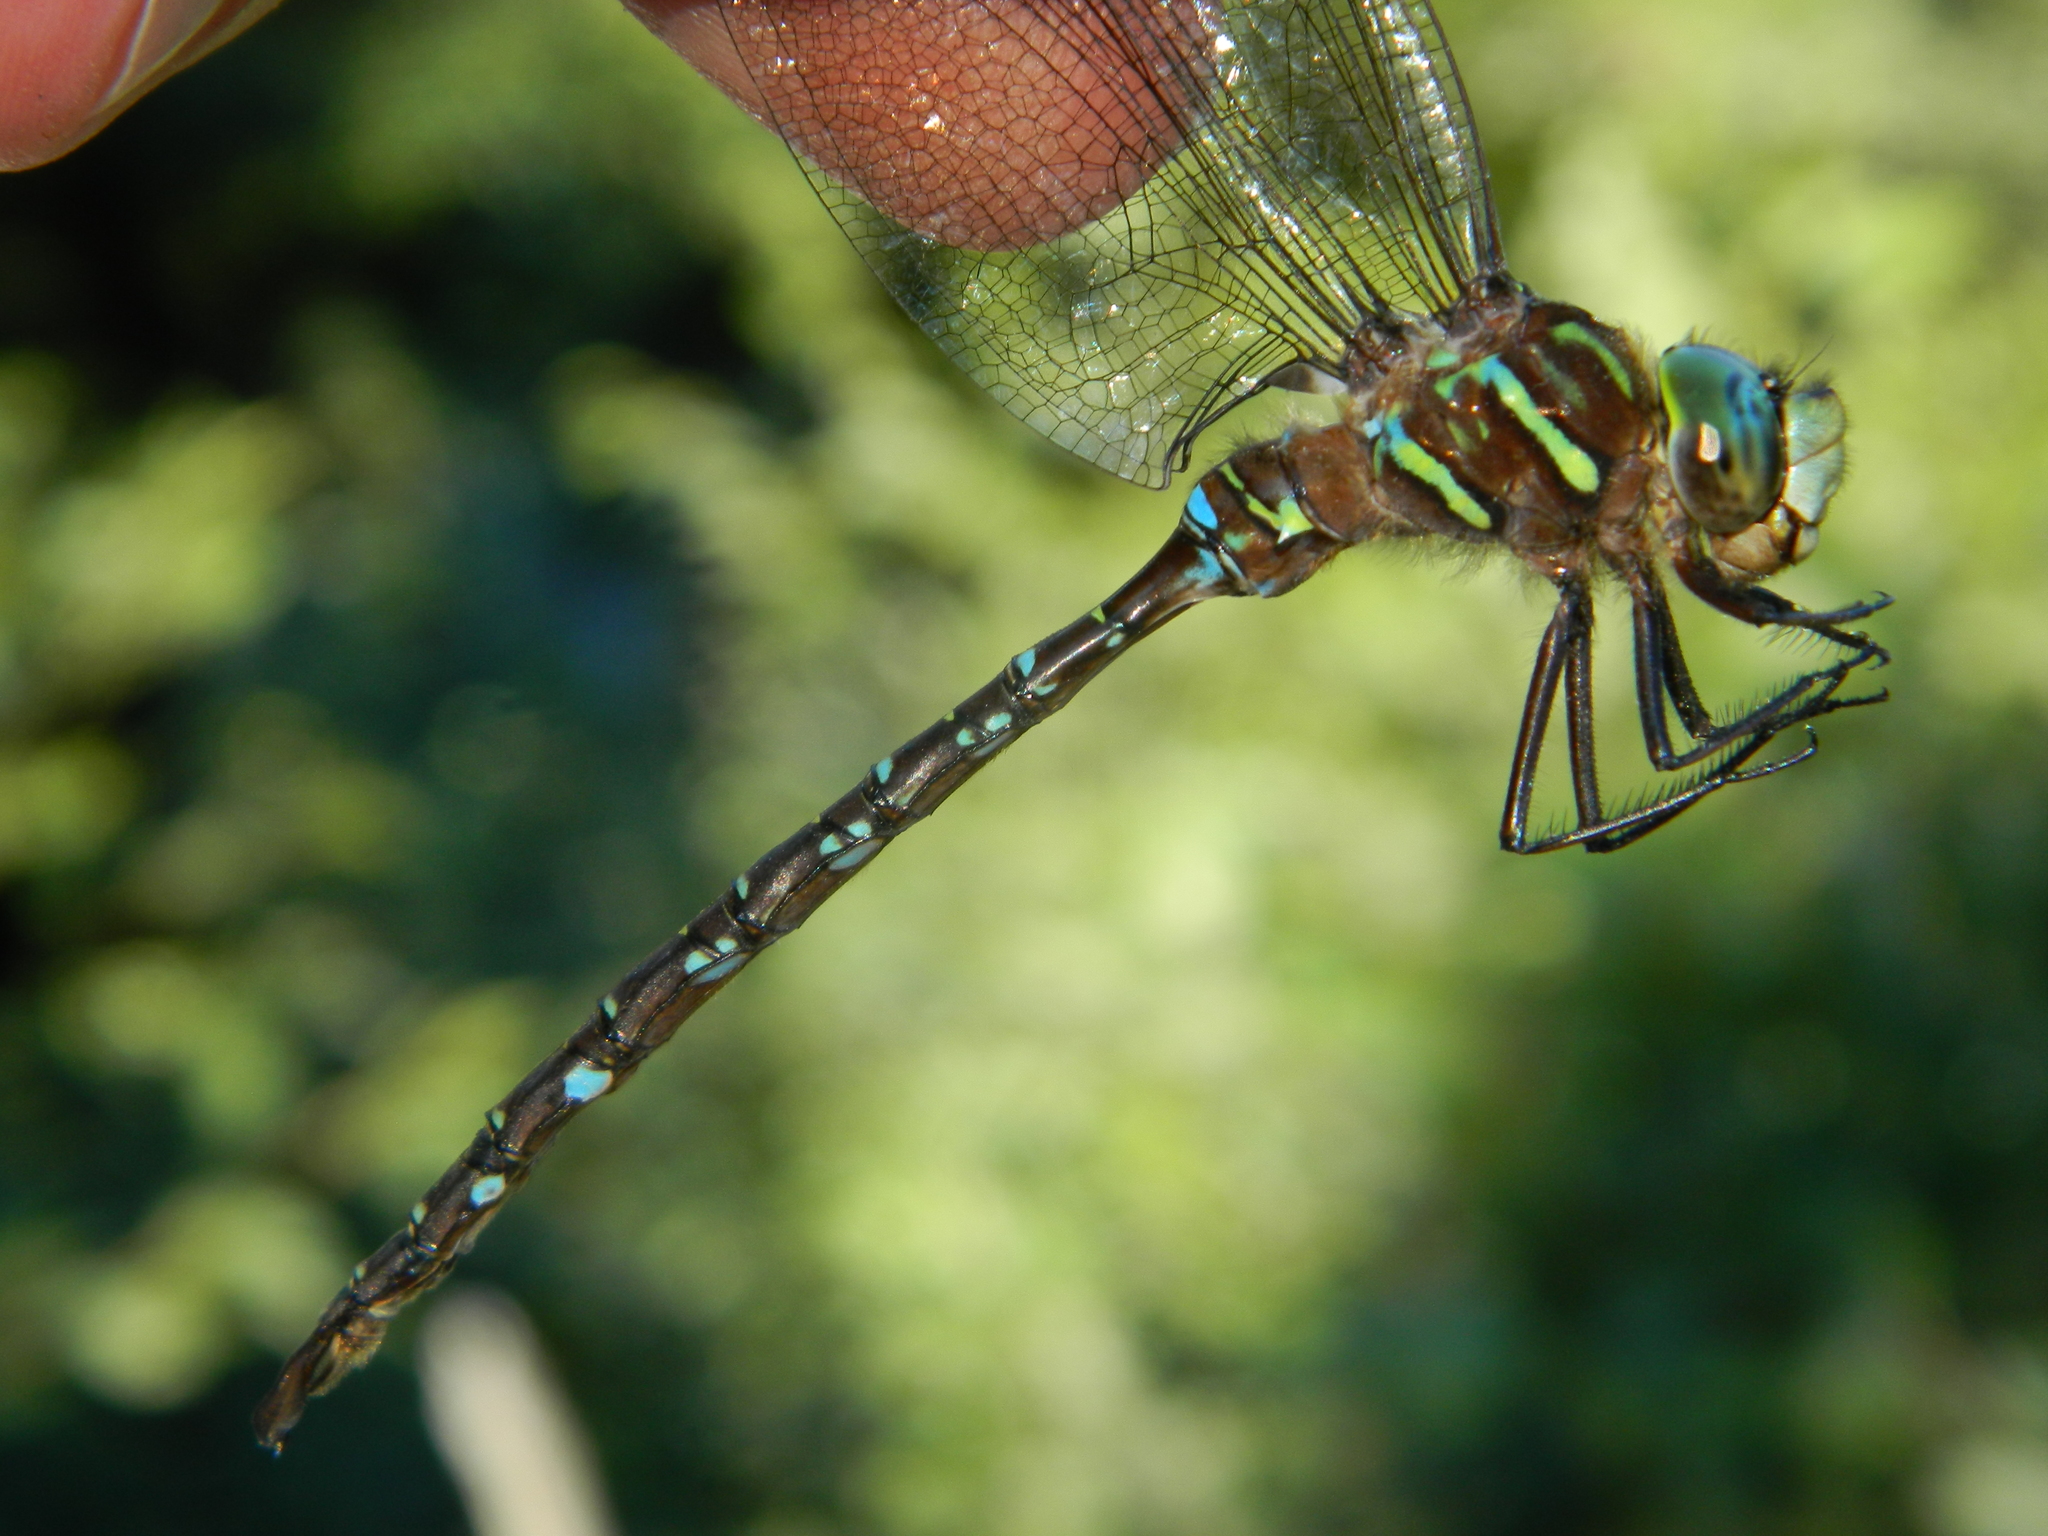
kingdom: Animalia
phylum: Arthropoda
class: Insecta
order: Odonata
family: Aeshnidae
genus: Aeshna
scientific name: Aeshna umbrosa
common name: Shadow darner
